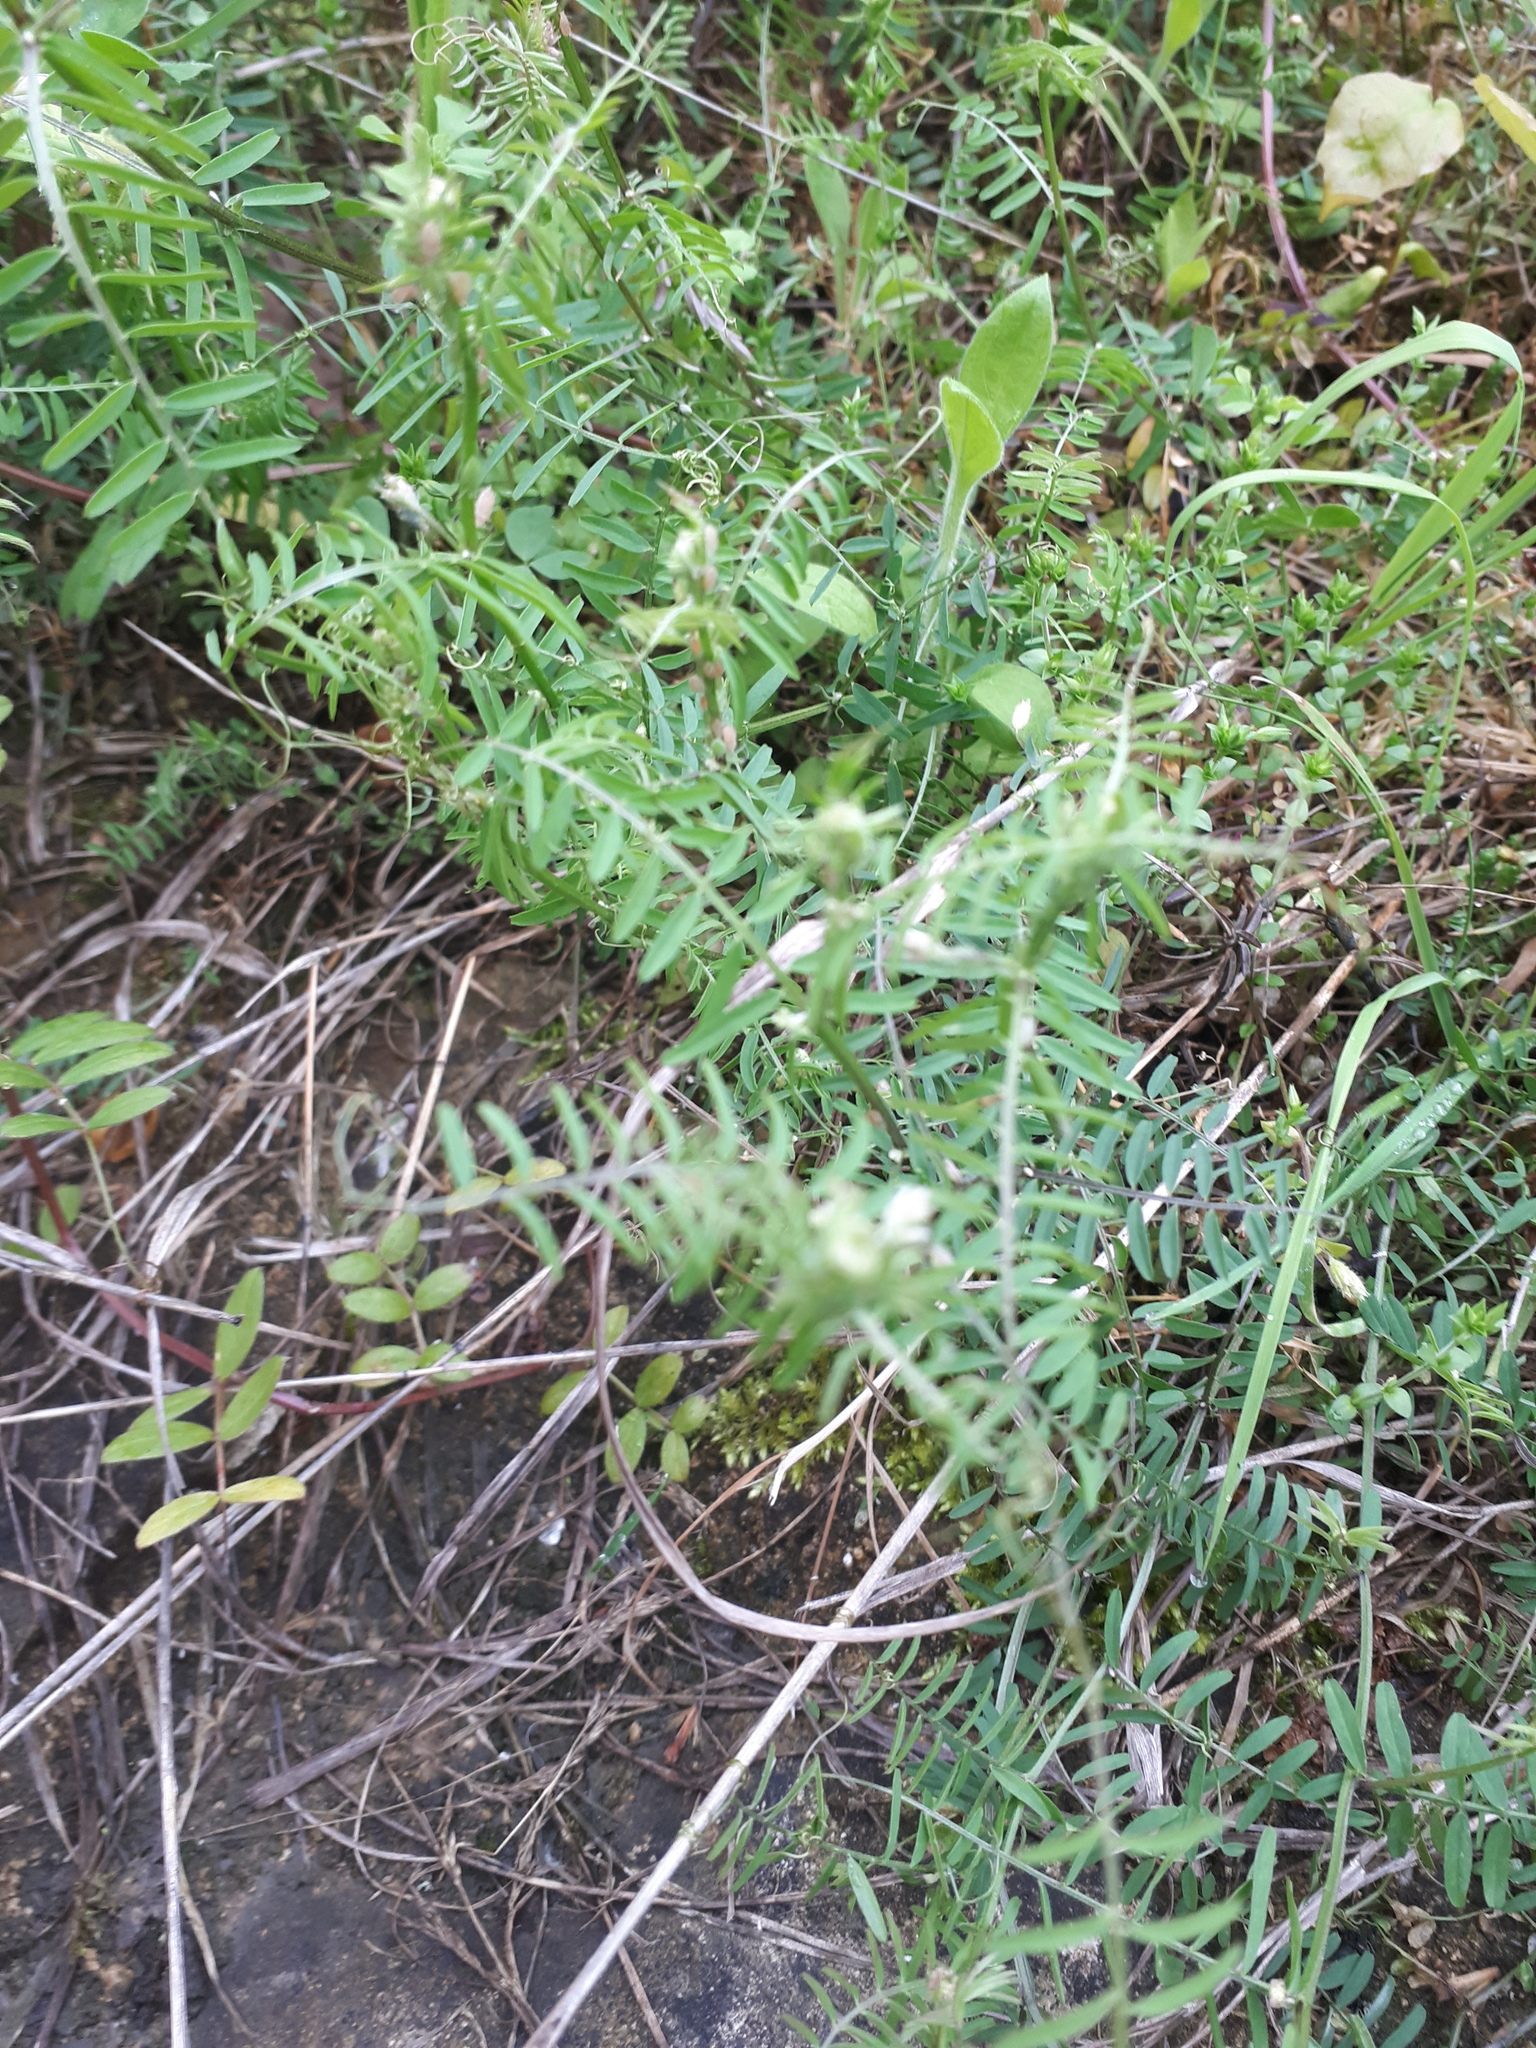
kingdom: Plantae
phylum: Tracheophyta
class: Magnoliopsida
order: Fabales
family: Fabaceae
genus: Vicia
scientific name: Vicia hirsuta
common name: Tiny vetch
